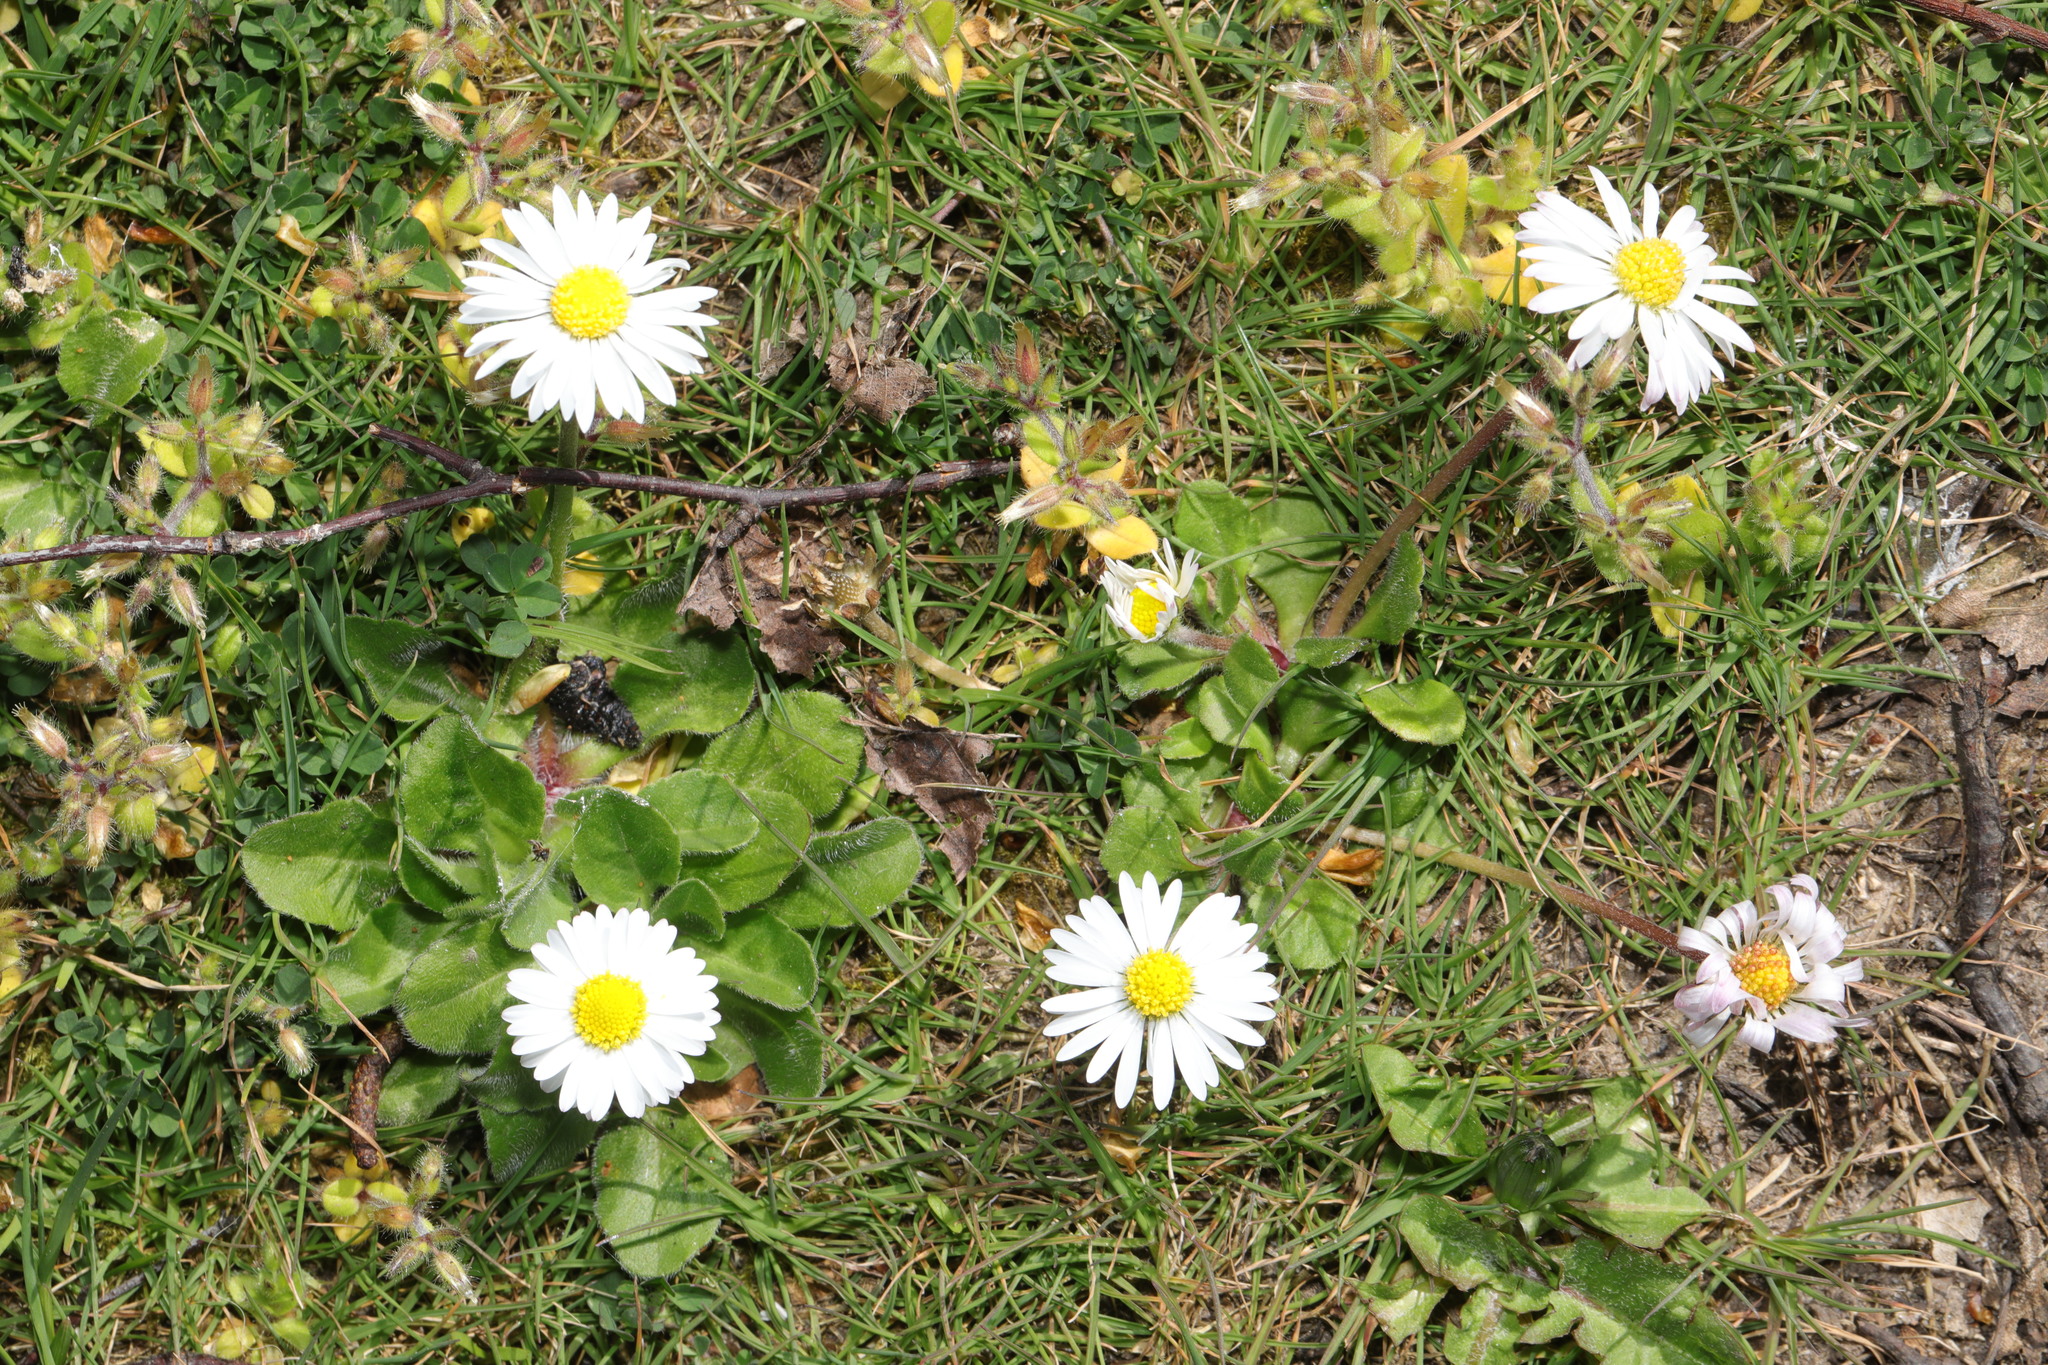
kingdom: Plantae
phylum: Tracheophyta
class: Magnoliopsida
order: Asterales
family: Asteraceae
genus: Bellis
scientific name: Bellis perennis
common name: Lawndaisy
